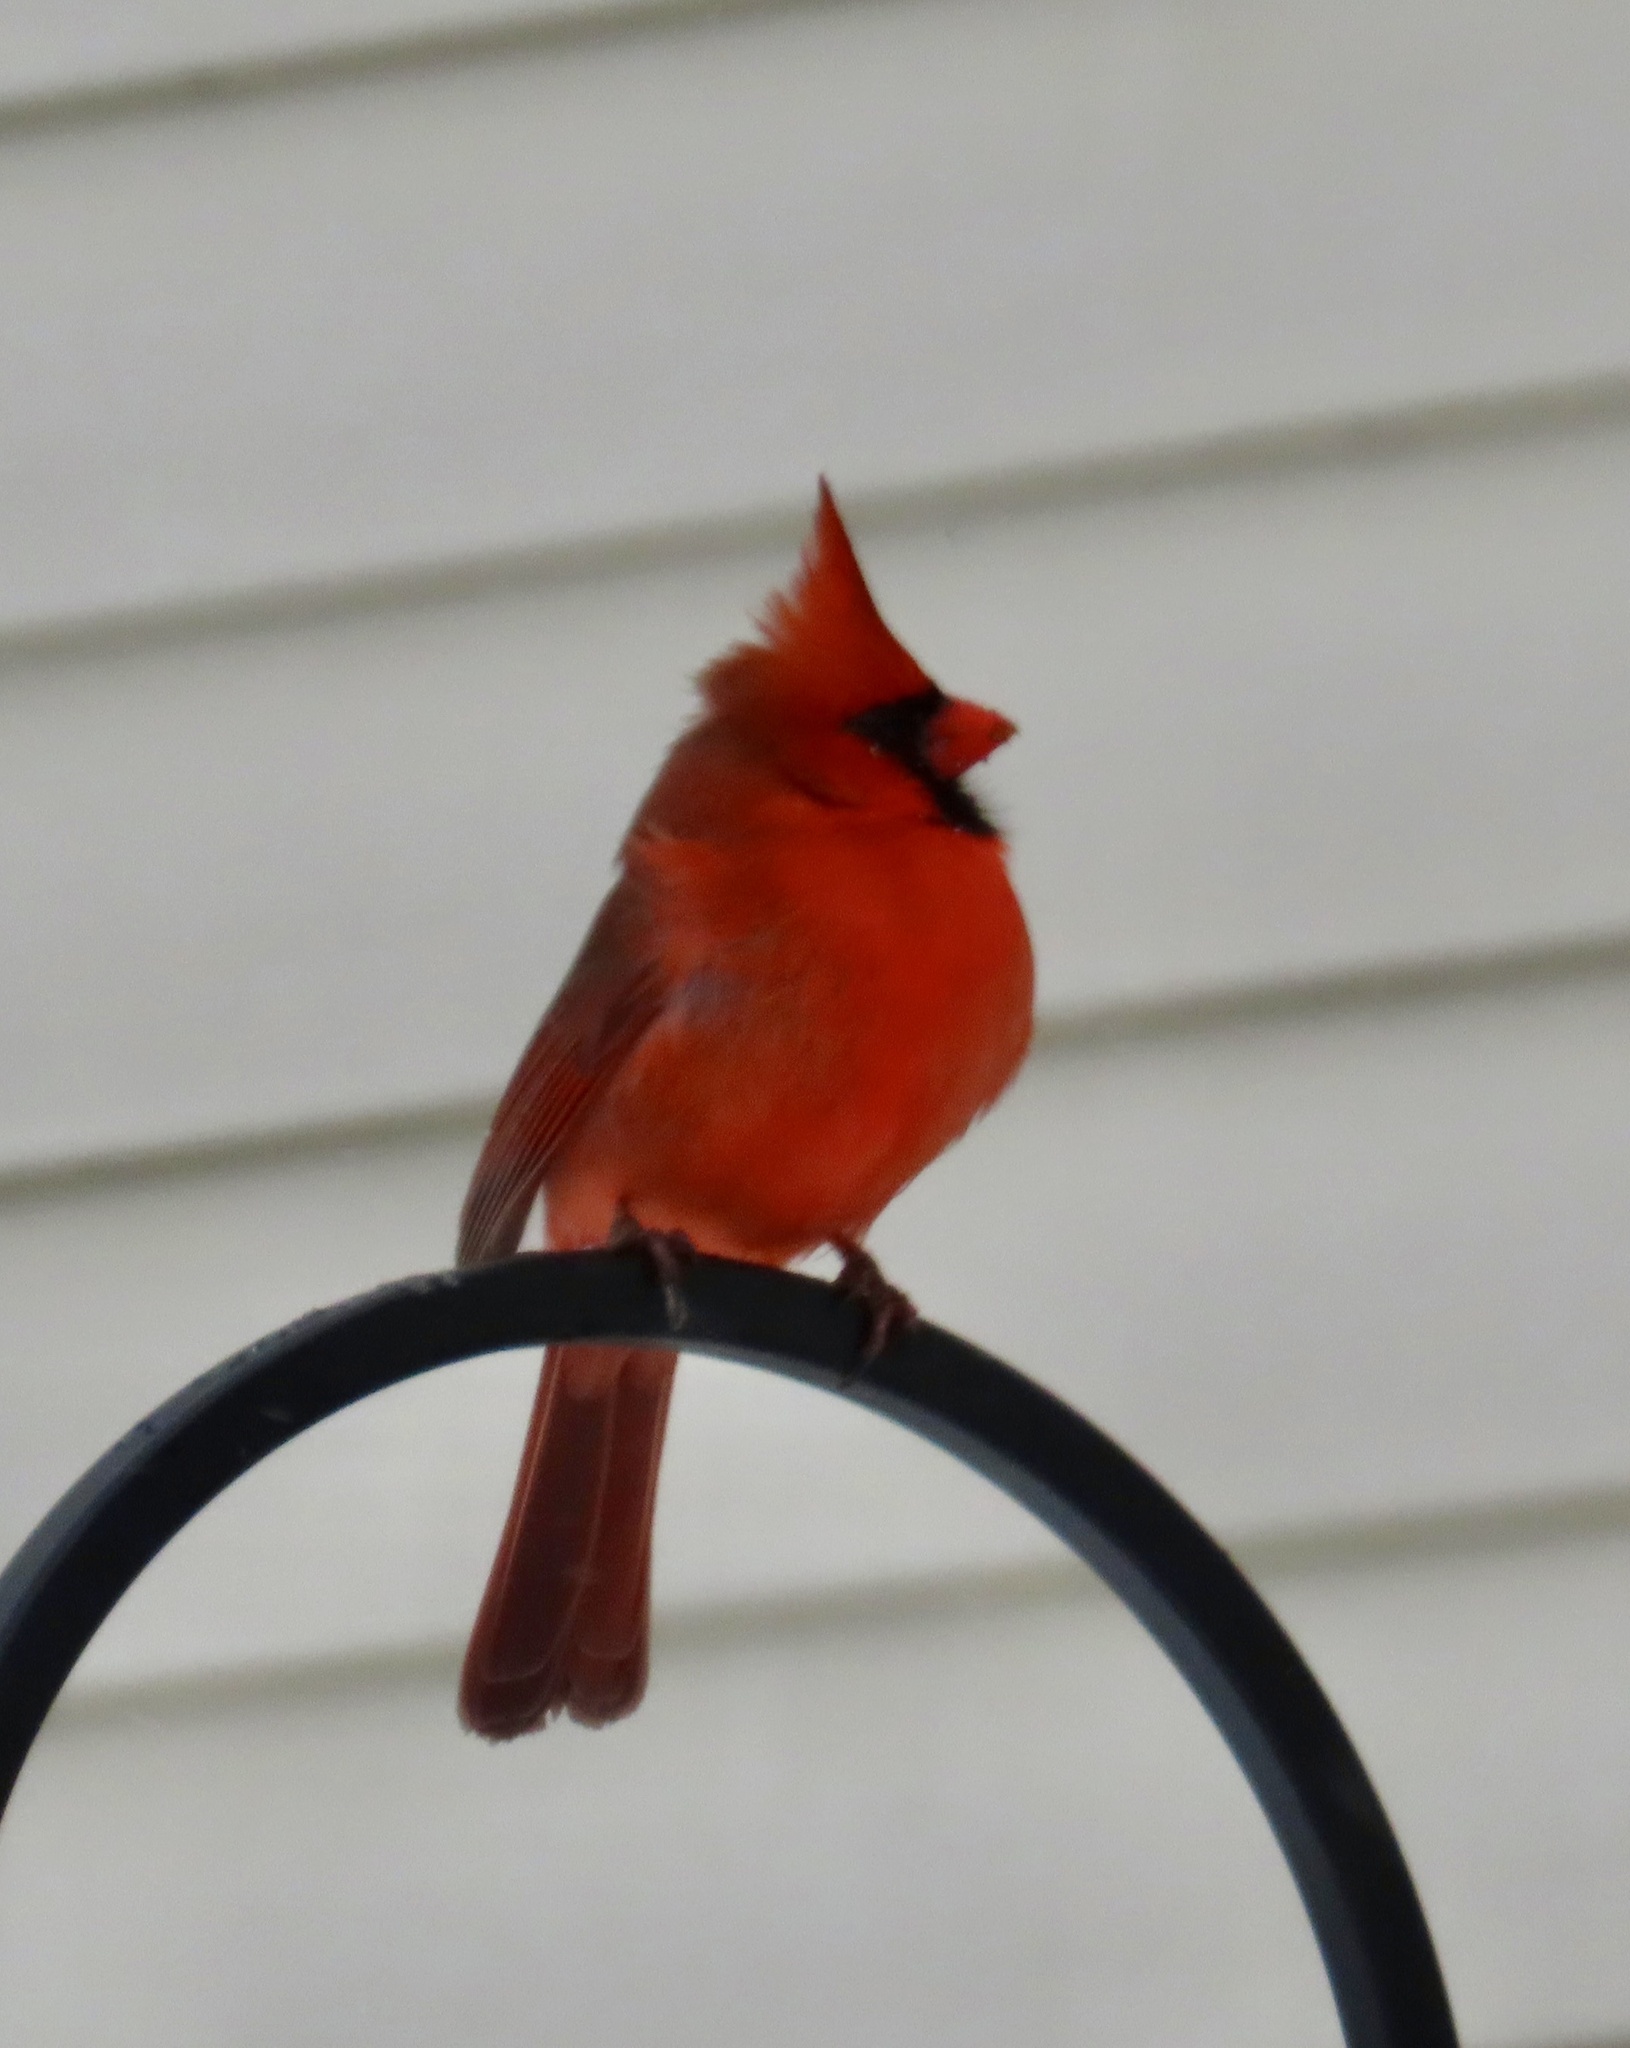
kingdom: Animalia
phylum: Chordata
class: Aves
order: Passeriformes
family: Cardinalidae
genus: Cardinalis
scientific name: Cardinalis cardinalis
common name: Northern cardinal
